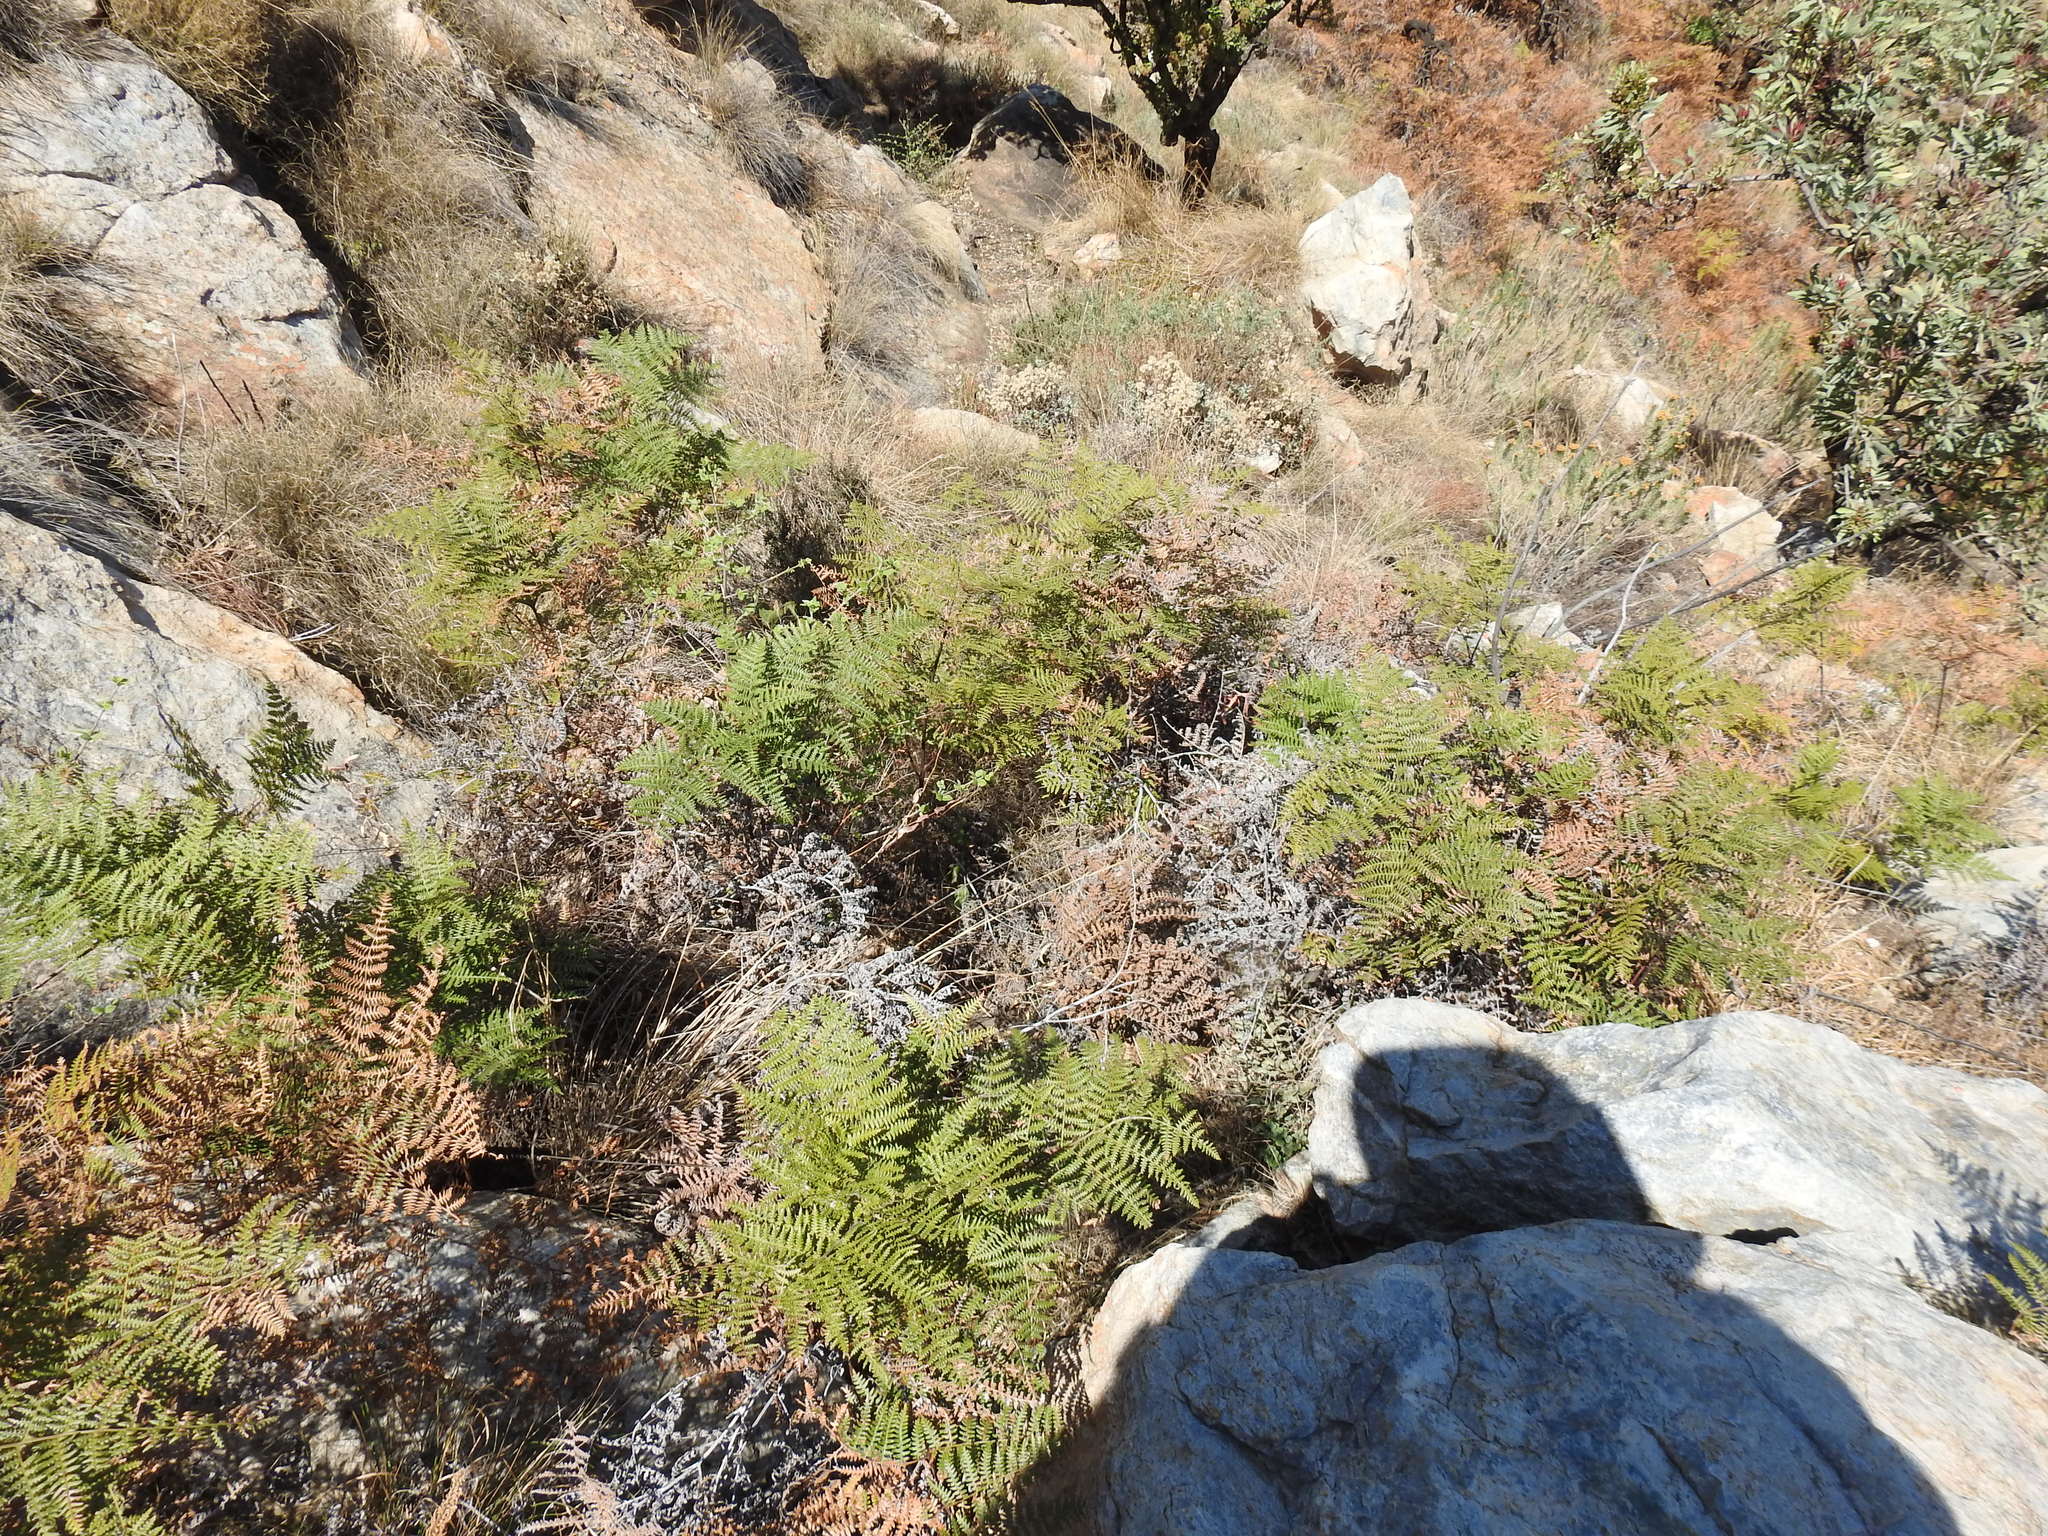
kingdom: Plantae
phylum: Tracheophyta
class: Polypodiopsida
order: Polypodiales
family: Dennstaedtiaceae
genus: Pteridium
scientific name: Pteridium aquilinum
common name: Bracken
